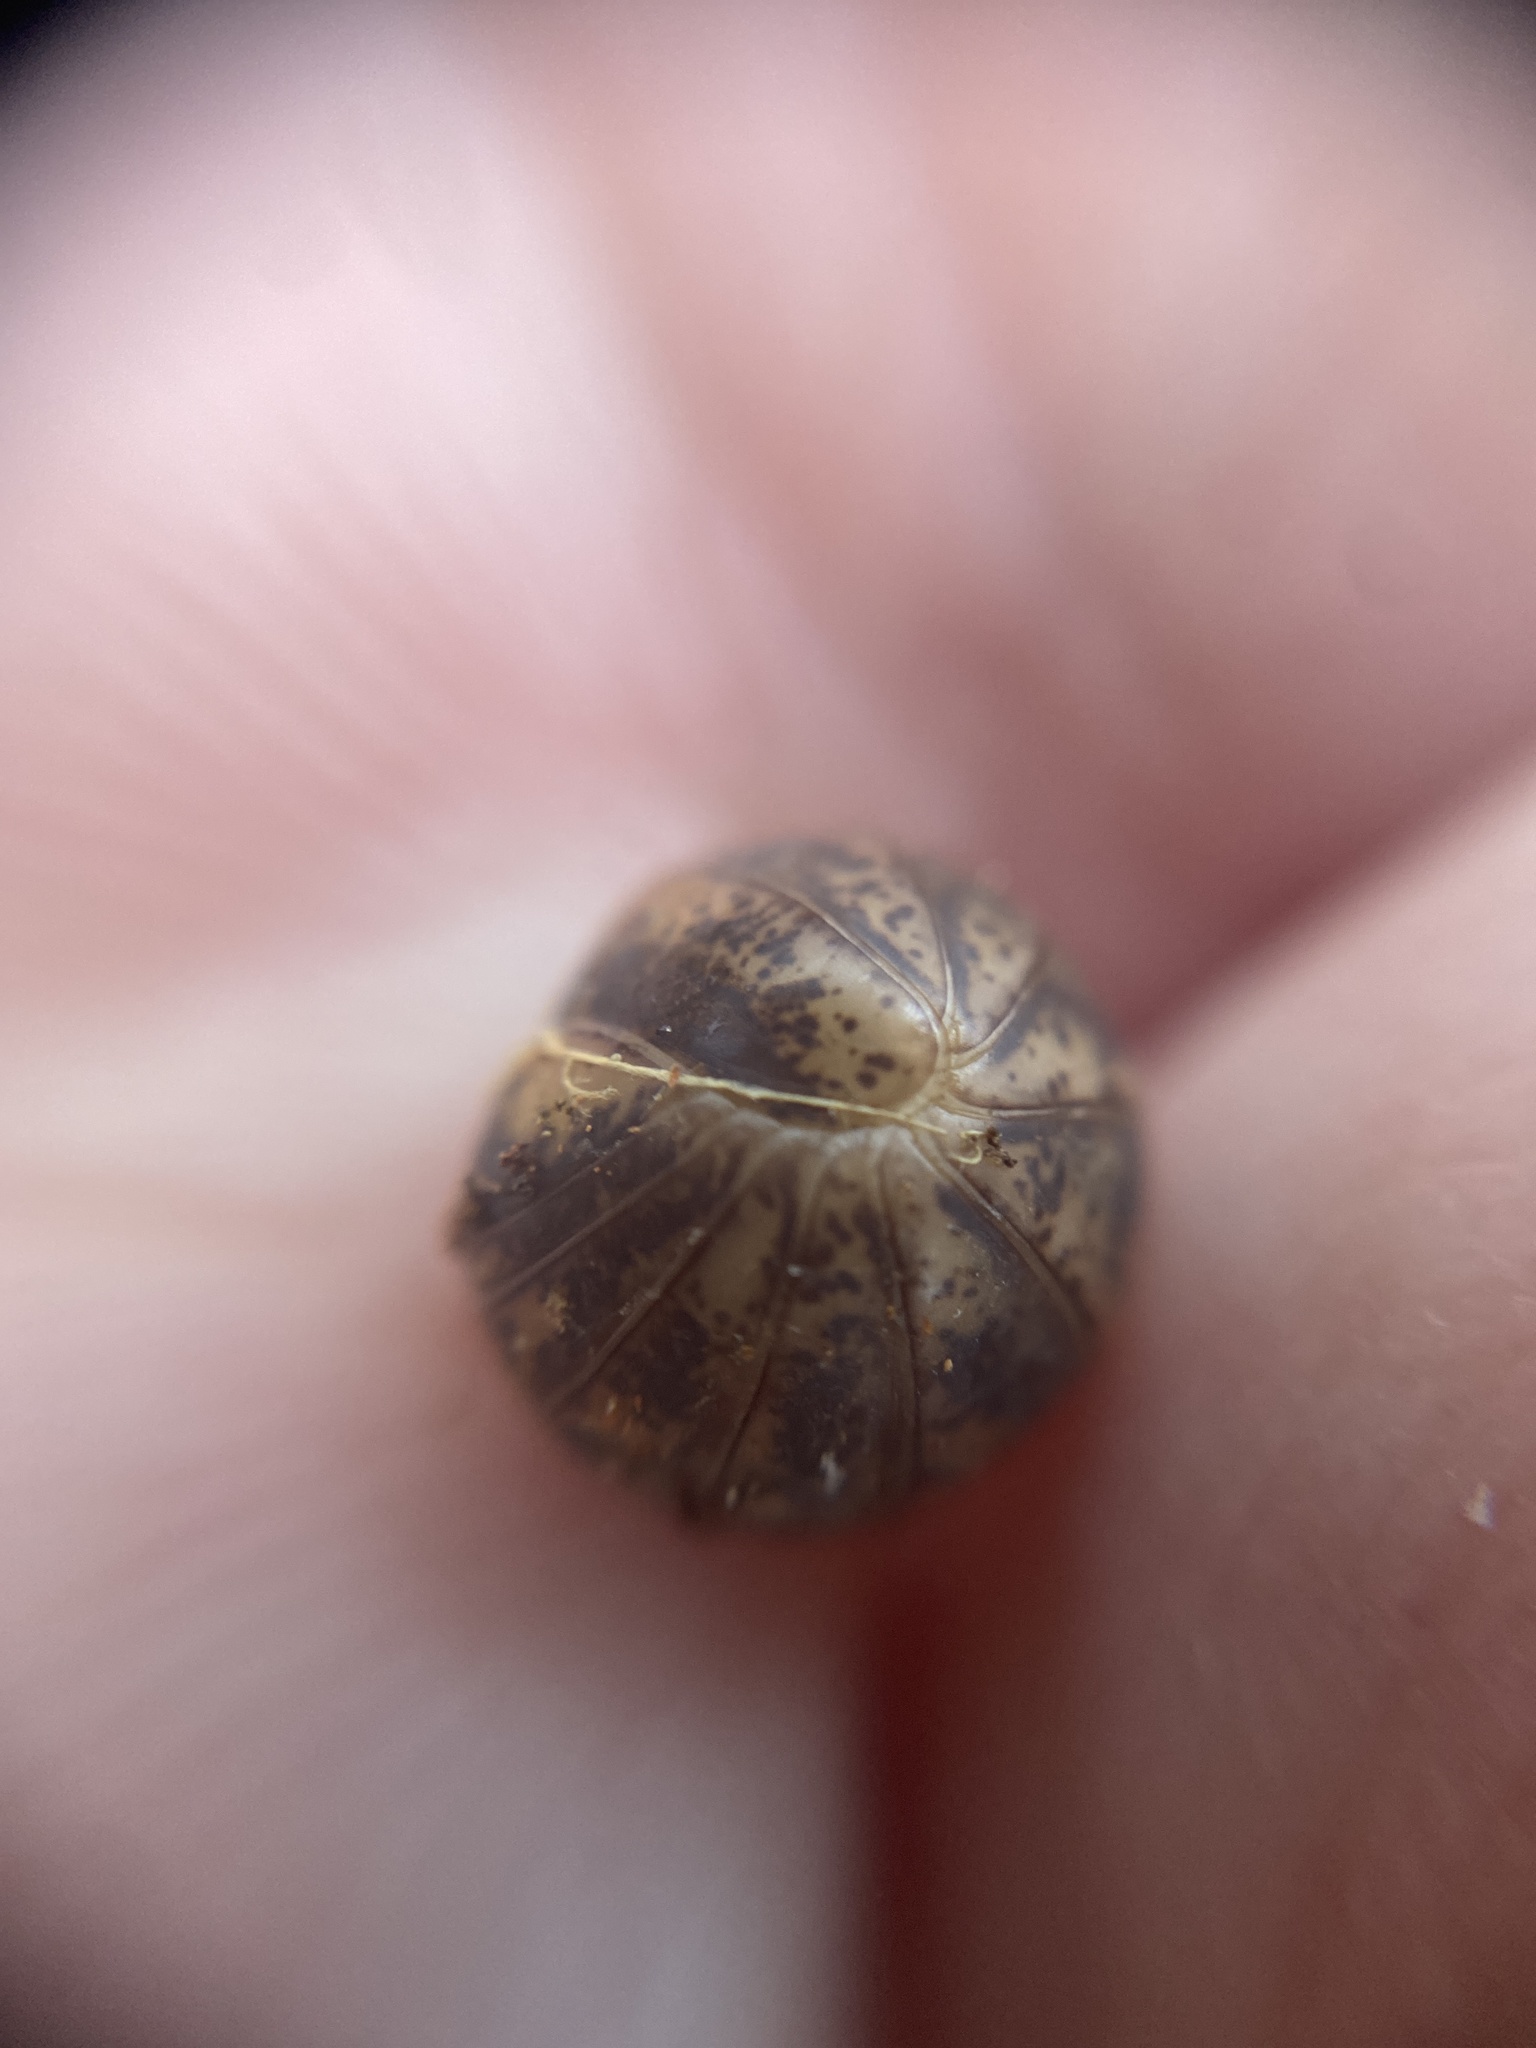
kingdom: Animalia
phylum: Arthropoda
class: Diplopoda
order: Glomerida
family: Glomeridae
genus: Glomeris
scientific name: Glomeris klugii
